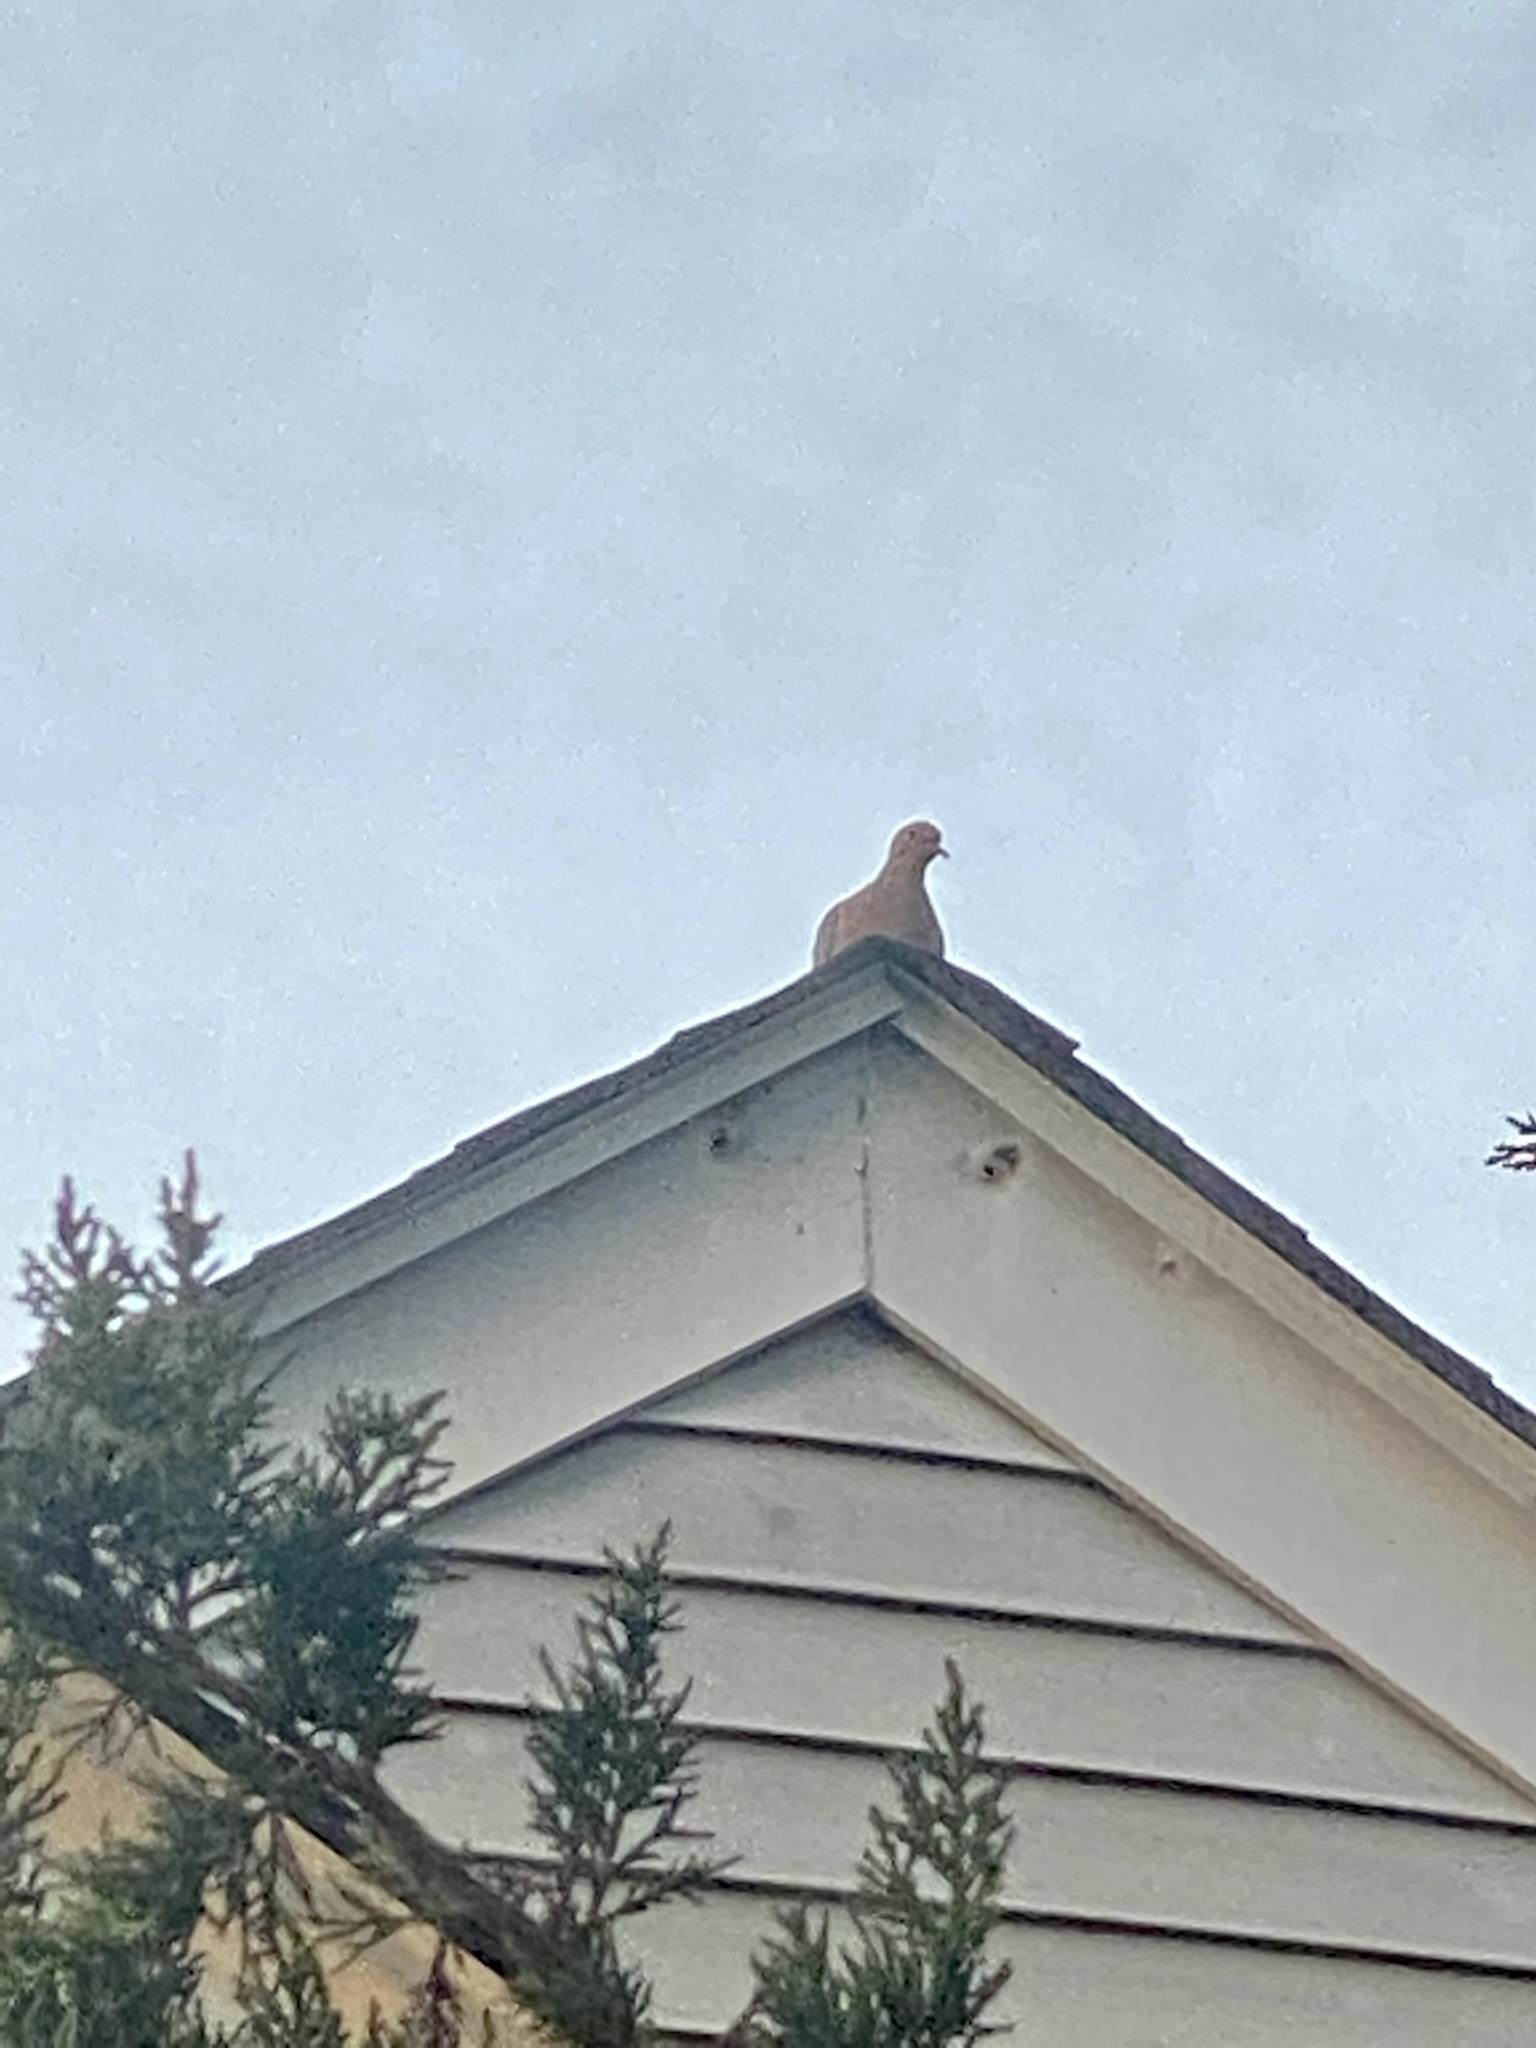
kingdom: Animalia
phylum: Chordata
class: Aves
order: Columbiformes
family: Columbidae
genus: Zenaida
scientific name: Zenaida macroura
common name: Mourning dove
